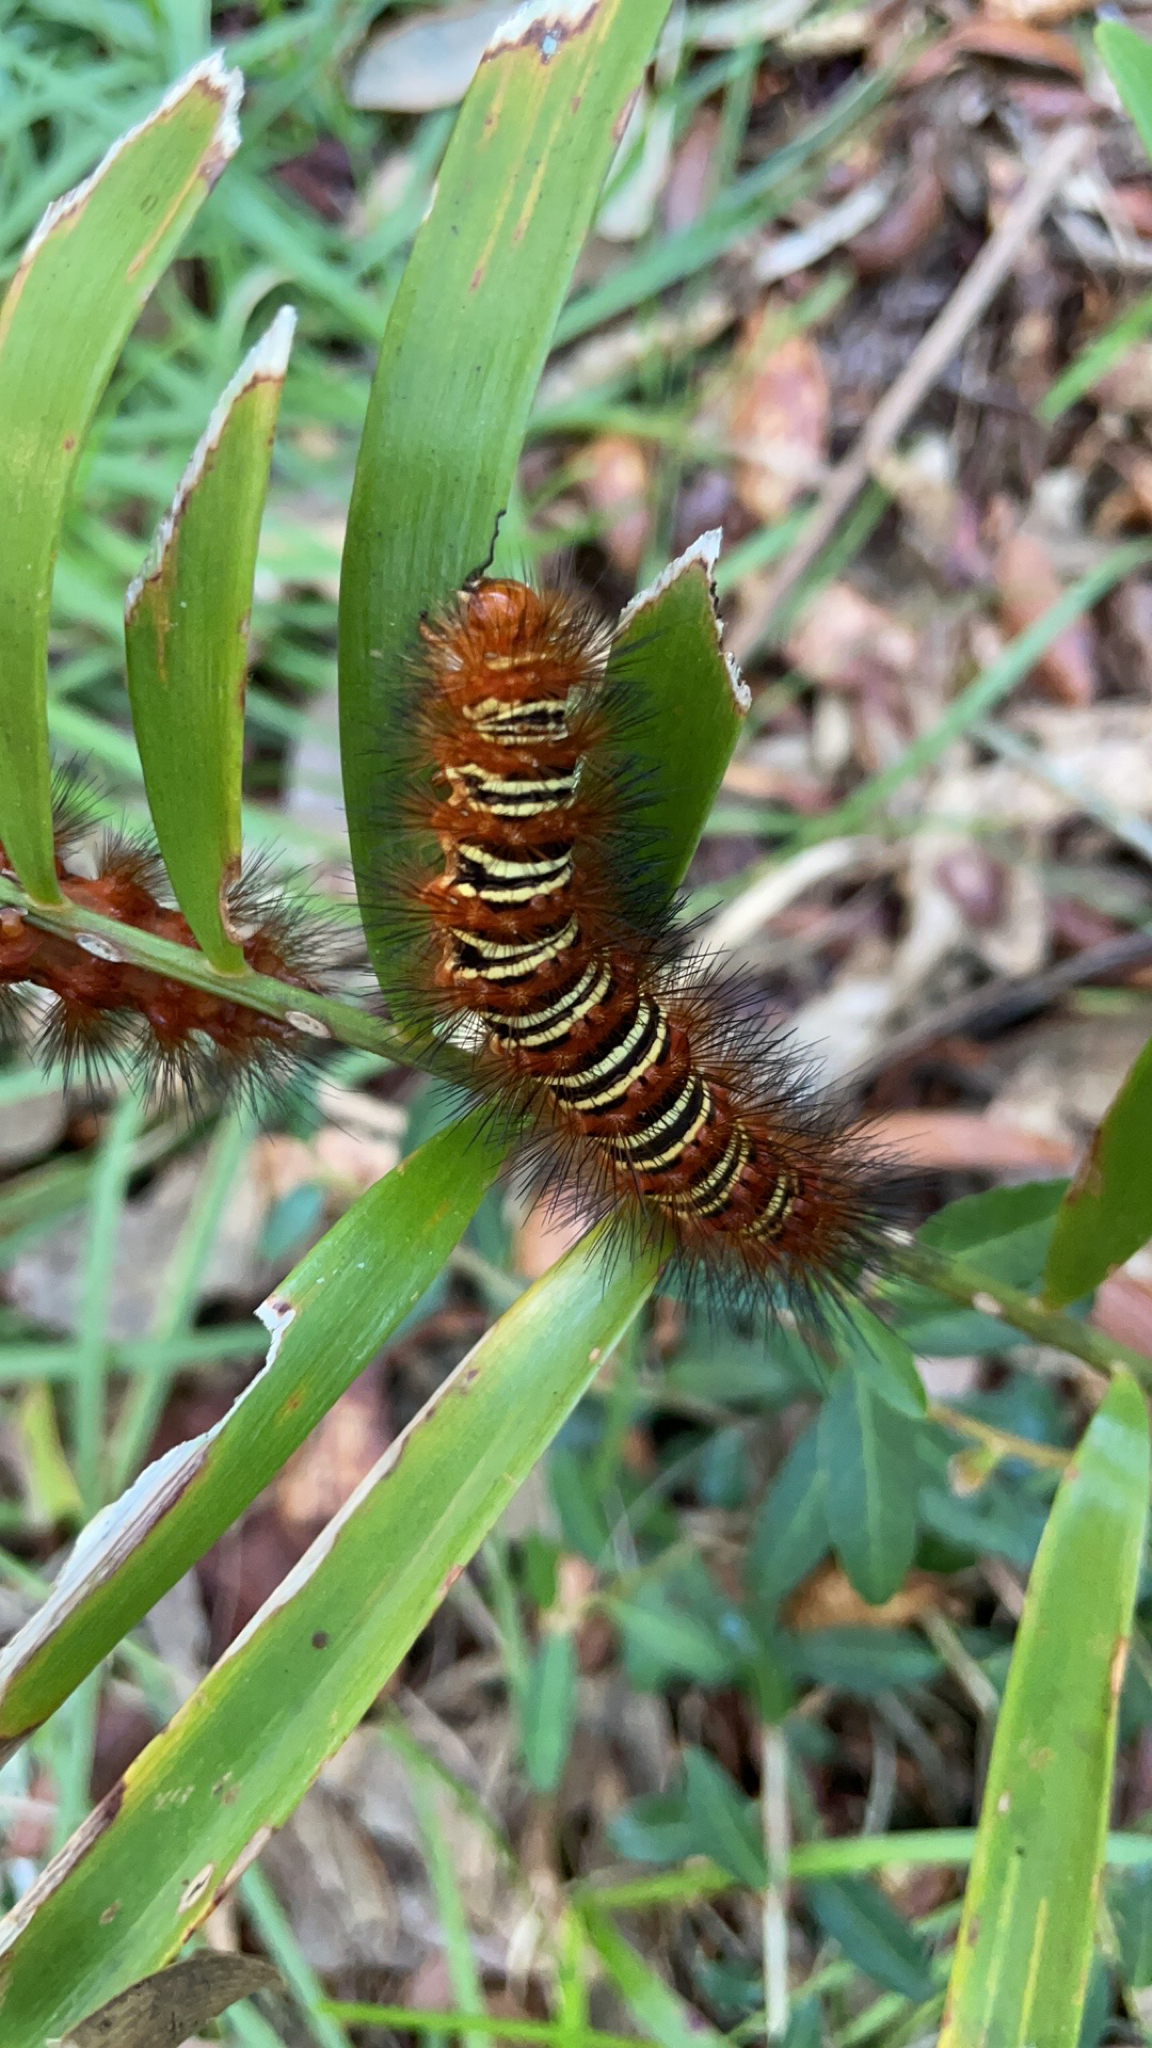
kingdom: Animalia
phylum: Arthropoda
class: Insecta
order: Lepidoptera
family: Erebidae
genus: Seirarctia
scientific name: Seirarctia echo
